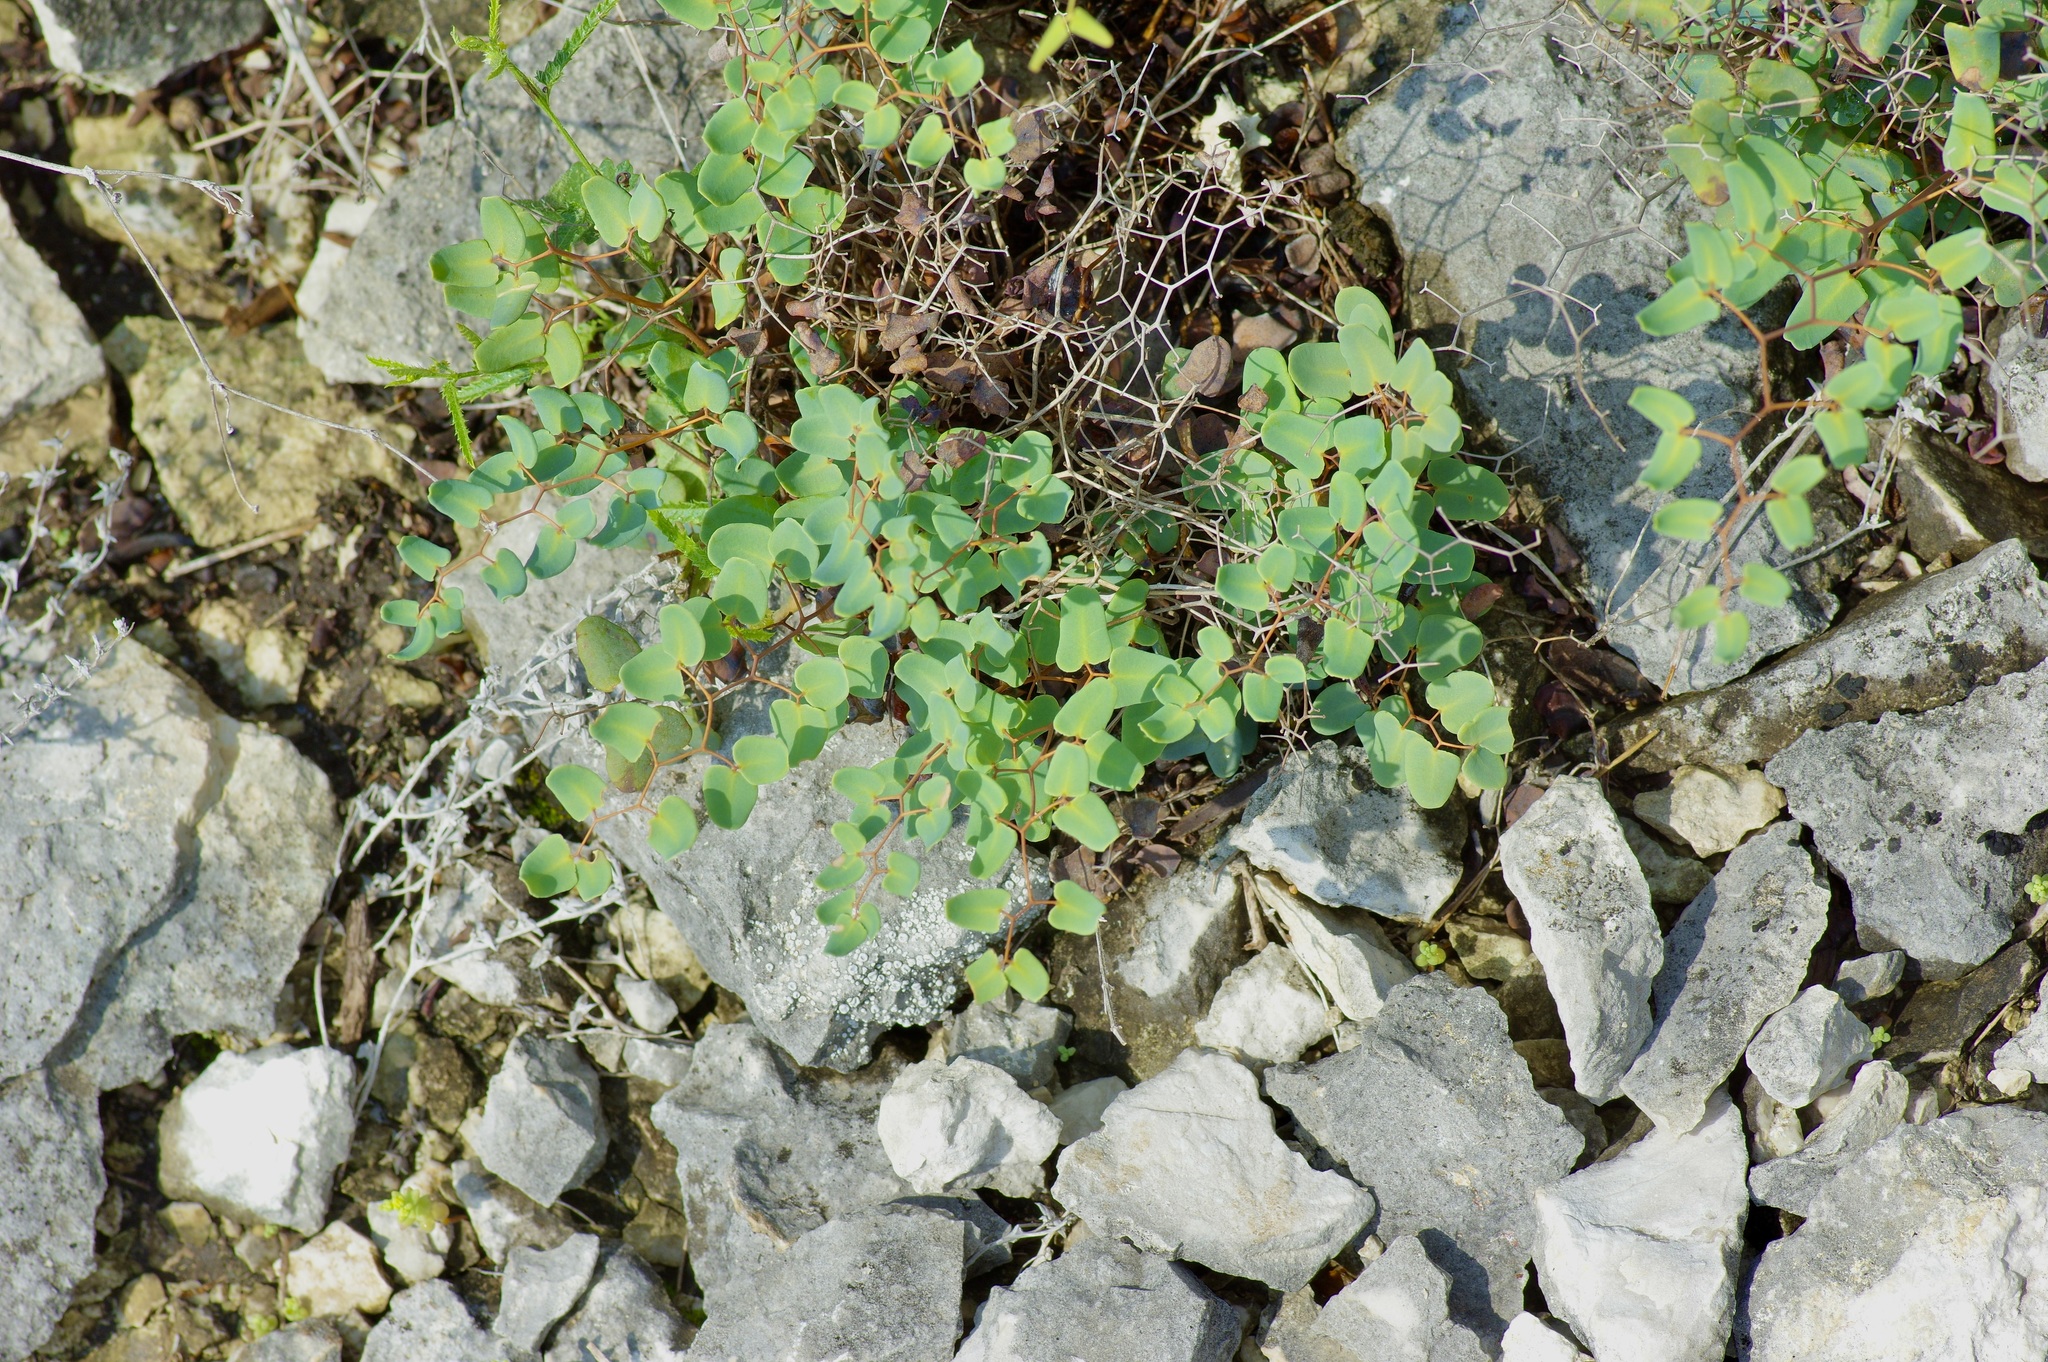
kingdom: Plantae
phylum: Tracheophyta
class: Polypodiopsida
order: Polypodiales
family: Pteridaceae
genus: Pellaea
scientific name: Pellaea ovata
